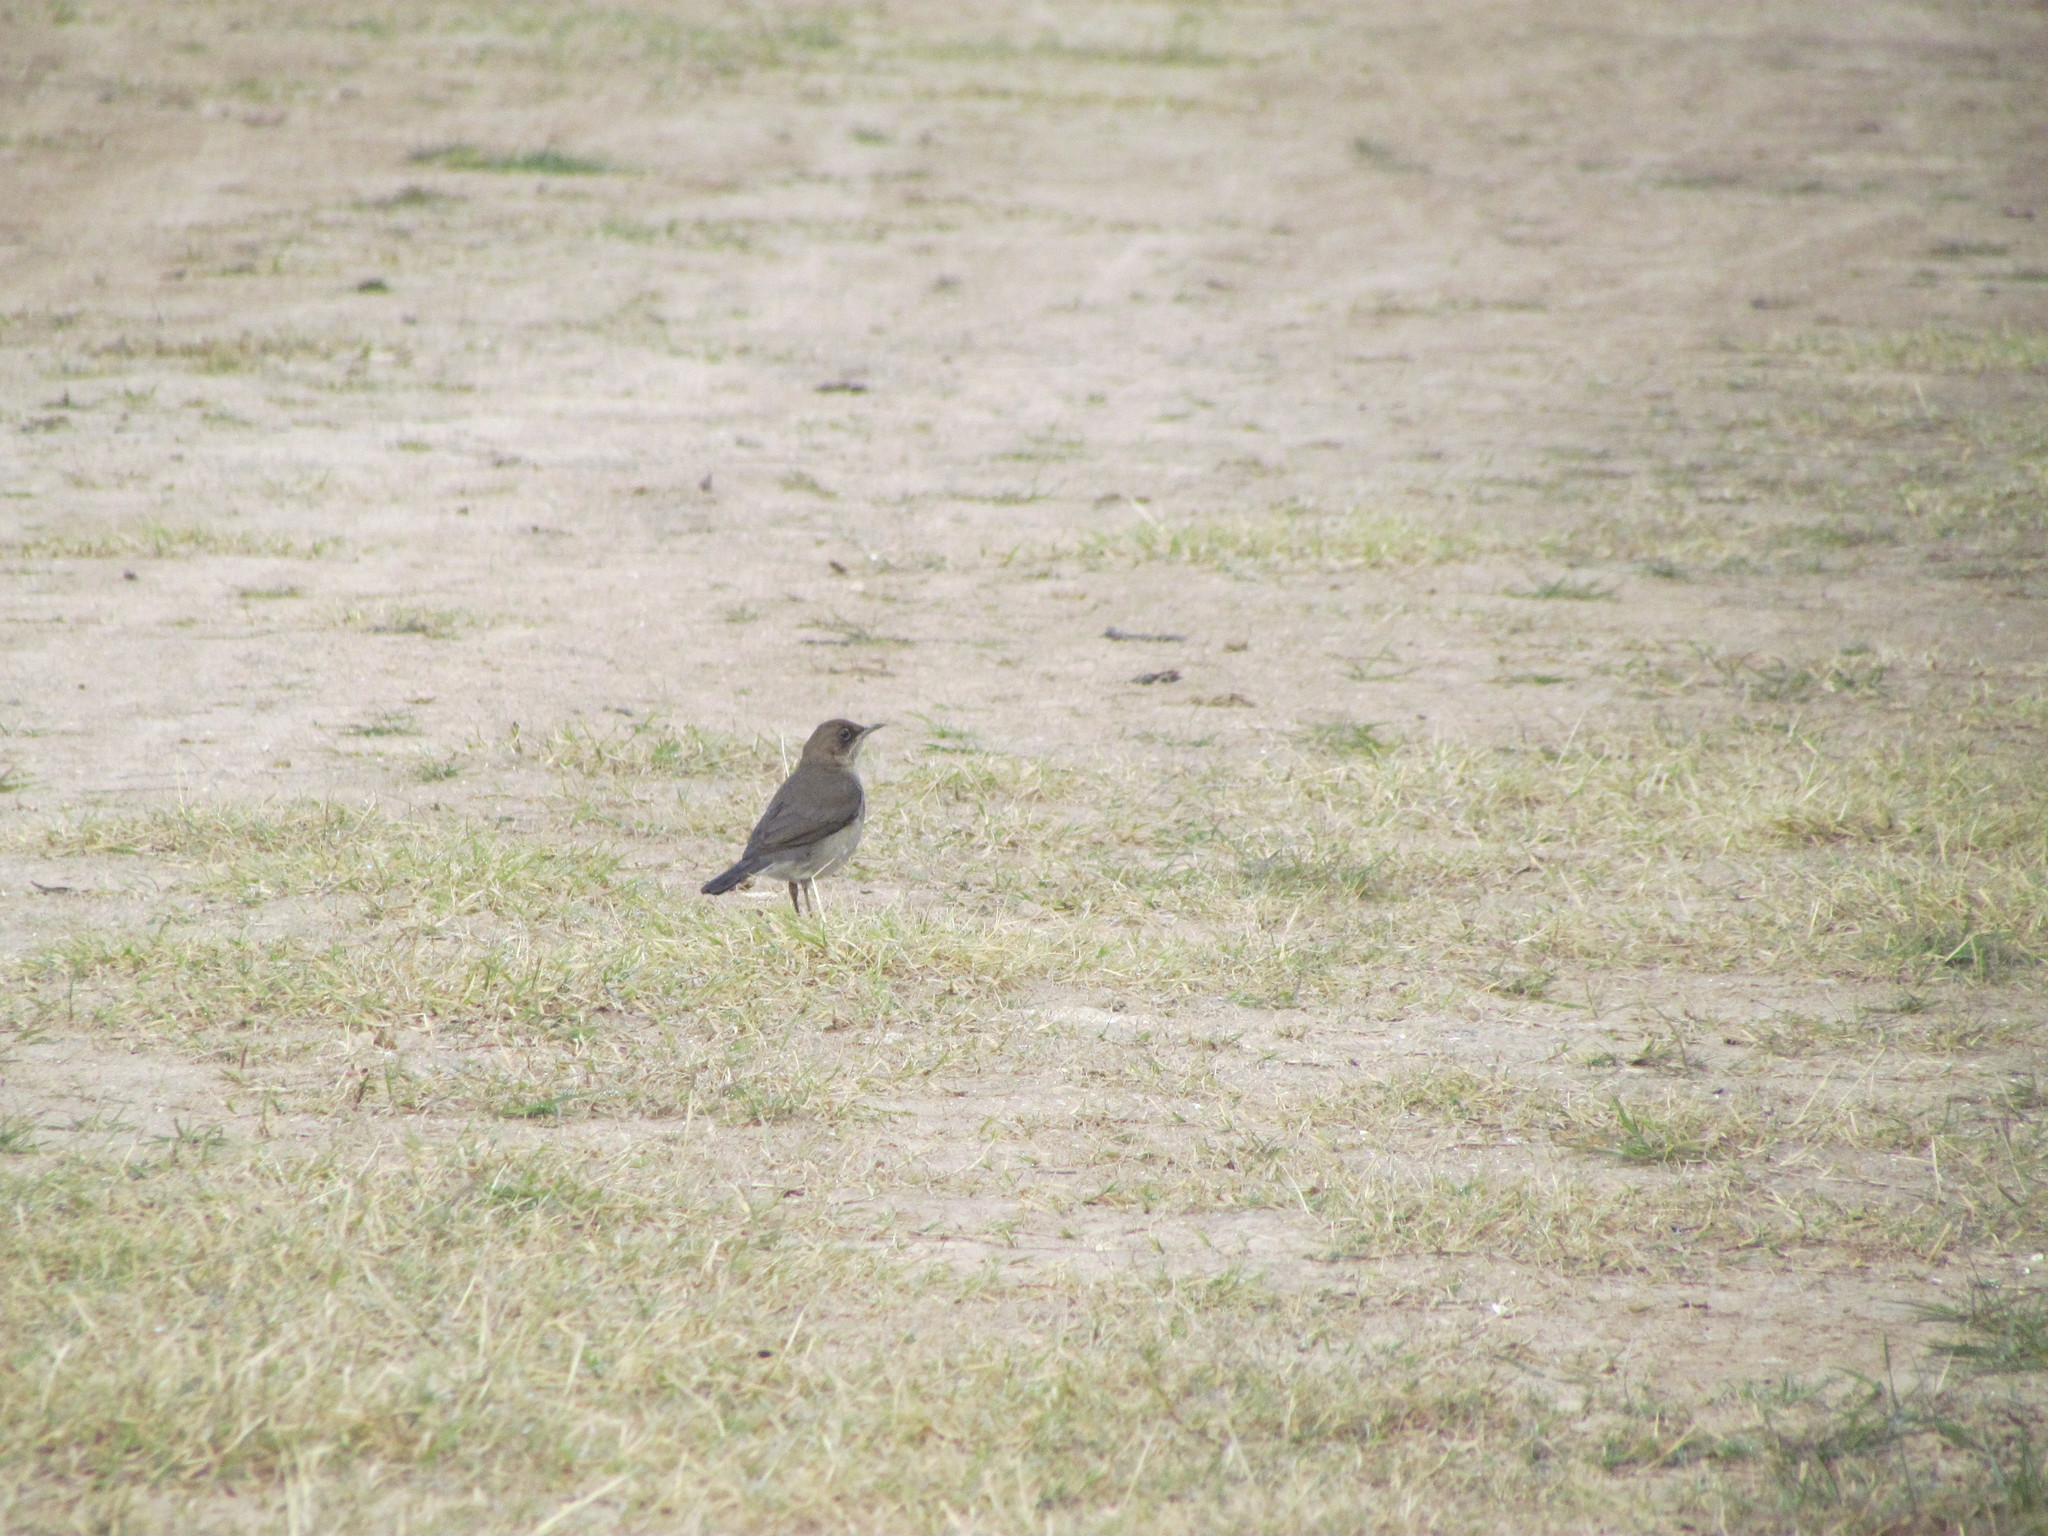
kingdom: Animalia
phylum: Chordata
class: Aves
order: Passeriformes
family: Turdidae
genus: Turdus
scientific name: Turdus amaurochalinus
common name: Creamy-bellied thrush
